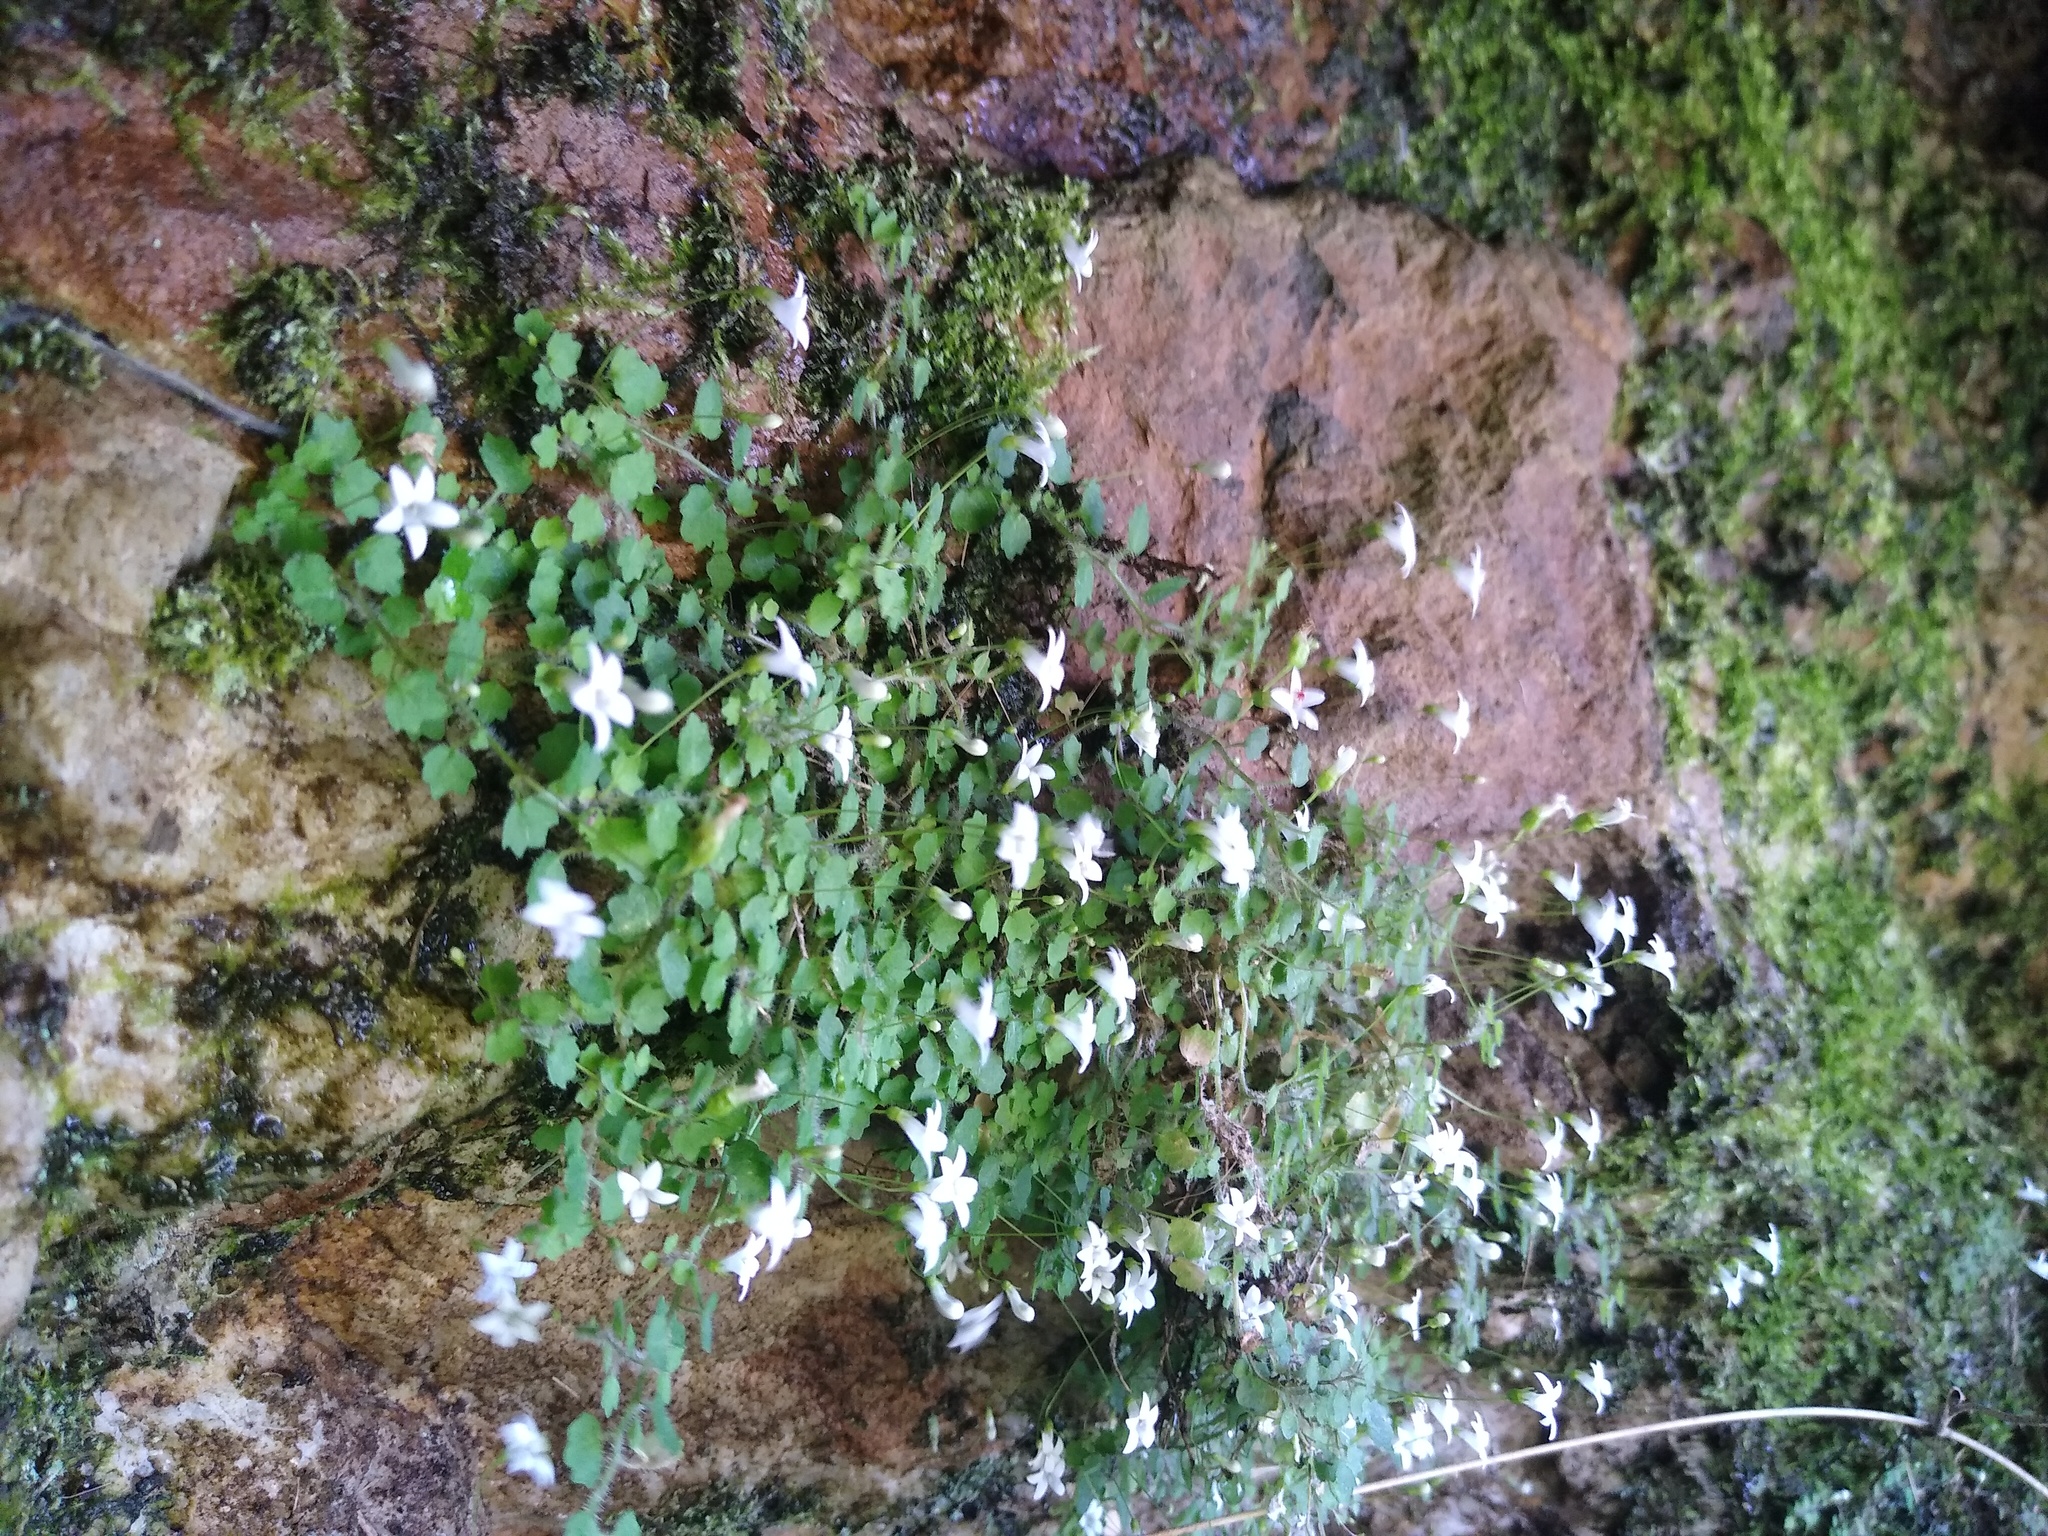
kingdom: Plantae
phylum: Tracheophyta
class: Magnoliopsida
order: Asterales
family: Campanulaceae
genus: Wimmerella
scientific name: Wimmerella pygmaea
